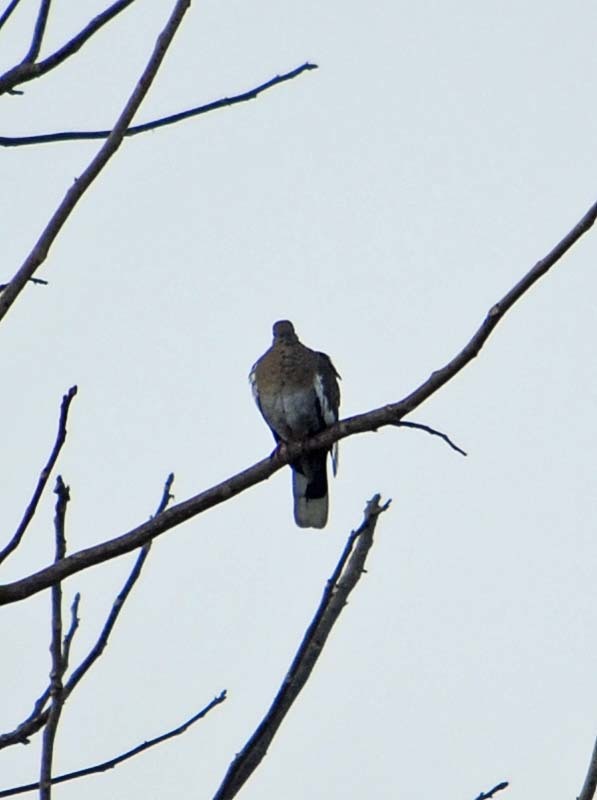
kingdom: Animalia
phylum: Chordata
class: Aves
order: Columbiformes
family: Columbidae
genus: Zenaida
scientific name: Zenaida asiatica
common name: White-winged dove
